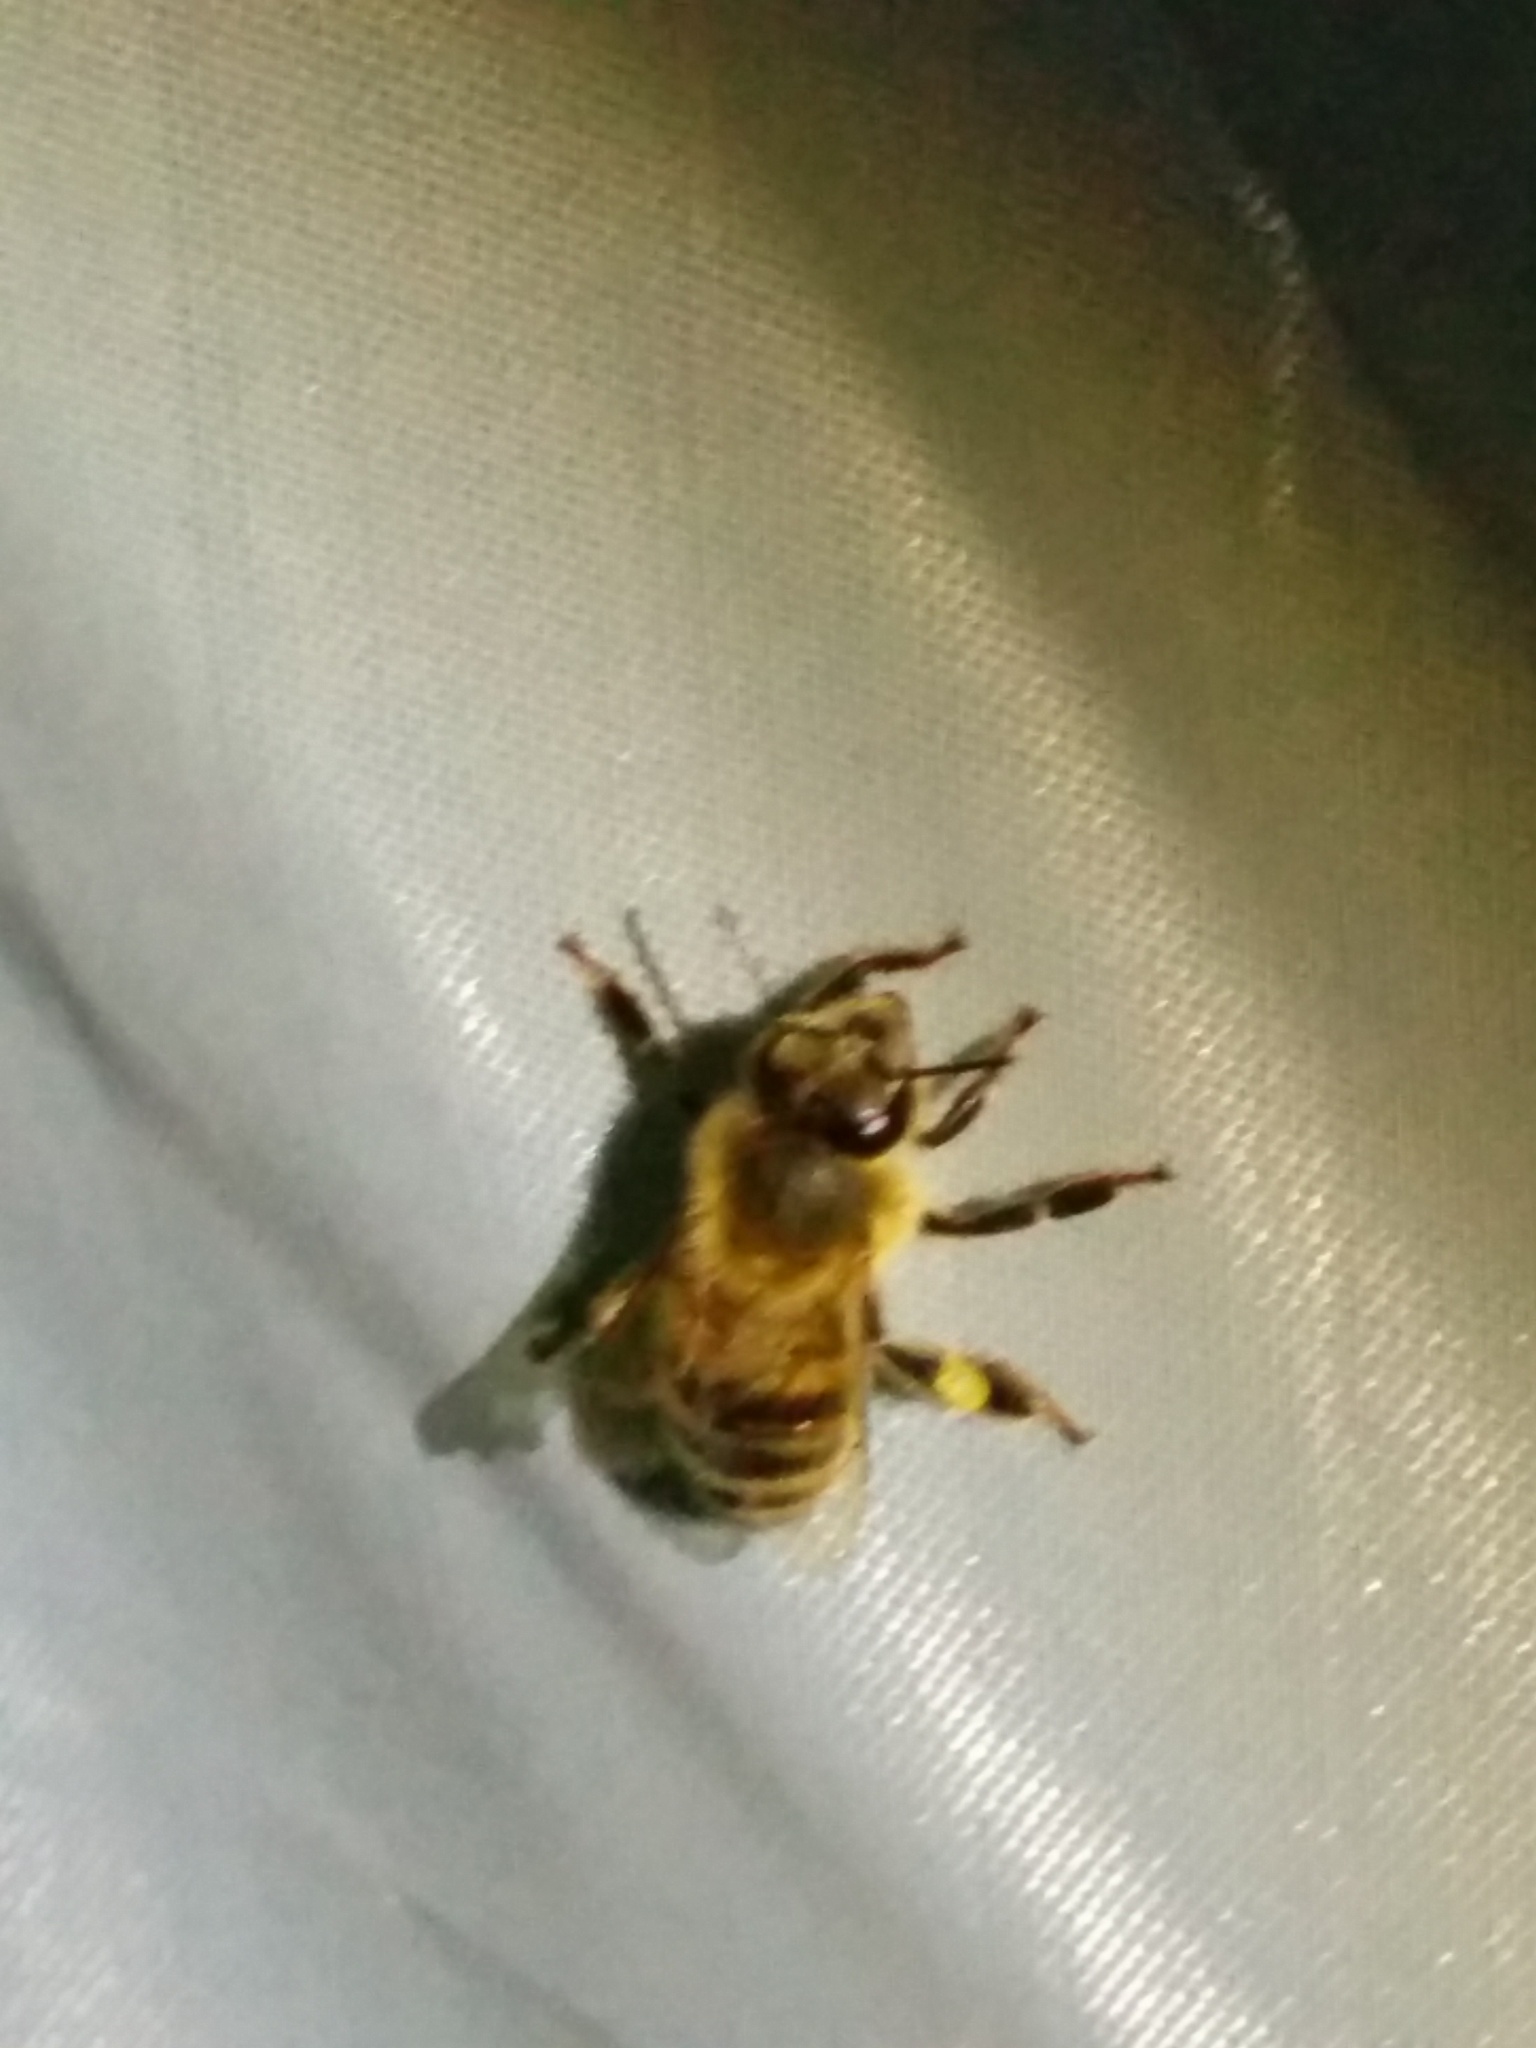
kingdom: Animalia
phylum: Arthropoda
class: Insecta
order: Hymenoptera
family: Apidae
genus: Apis
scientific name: Apis mellifera
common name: Honey bee
